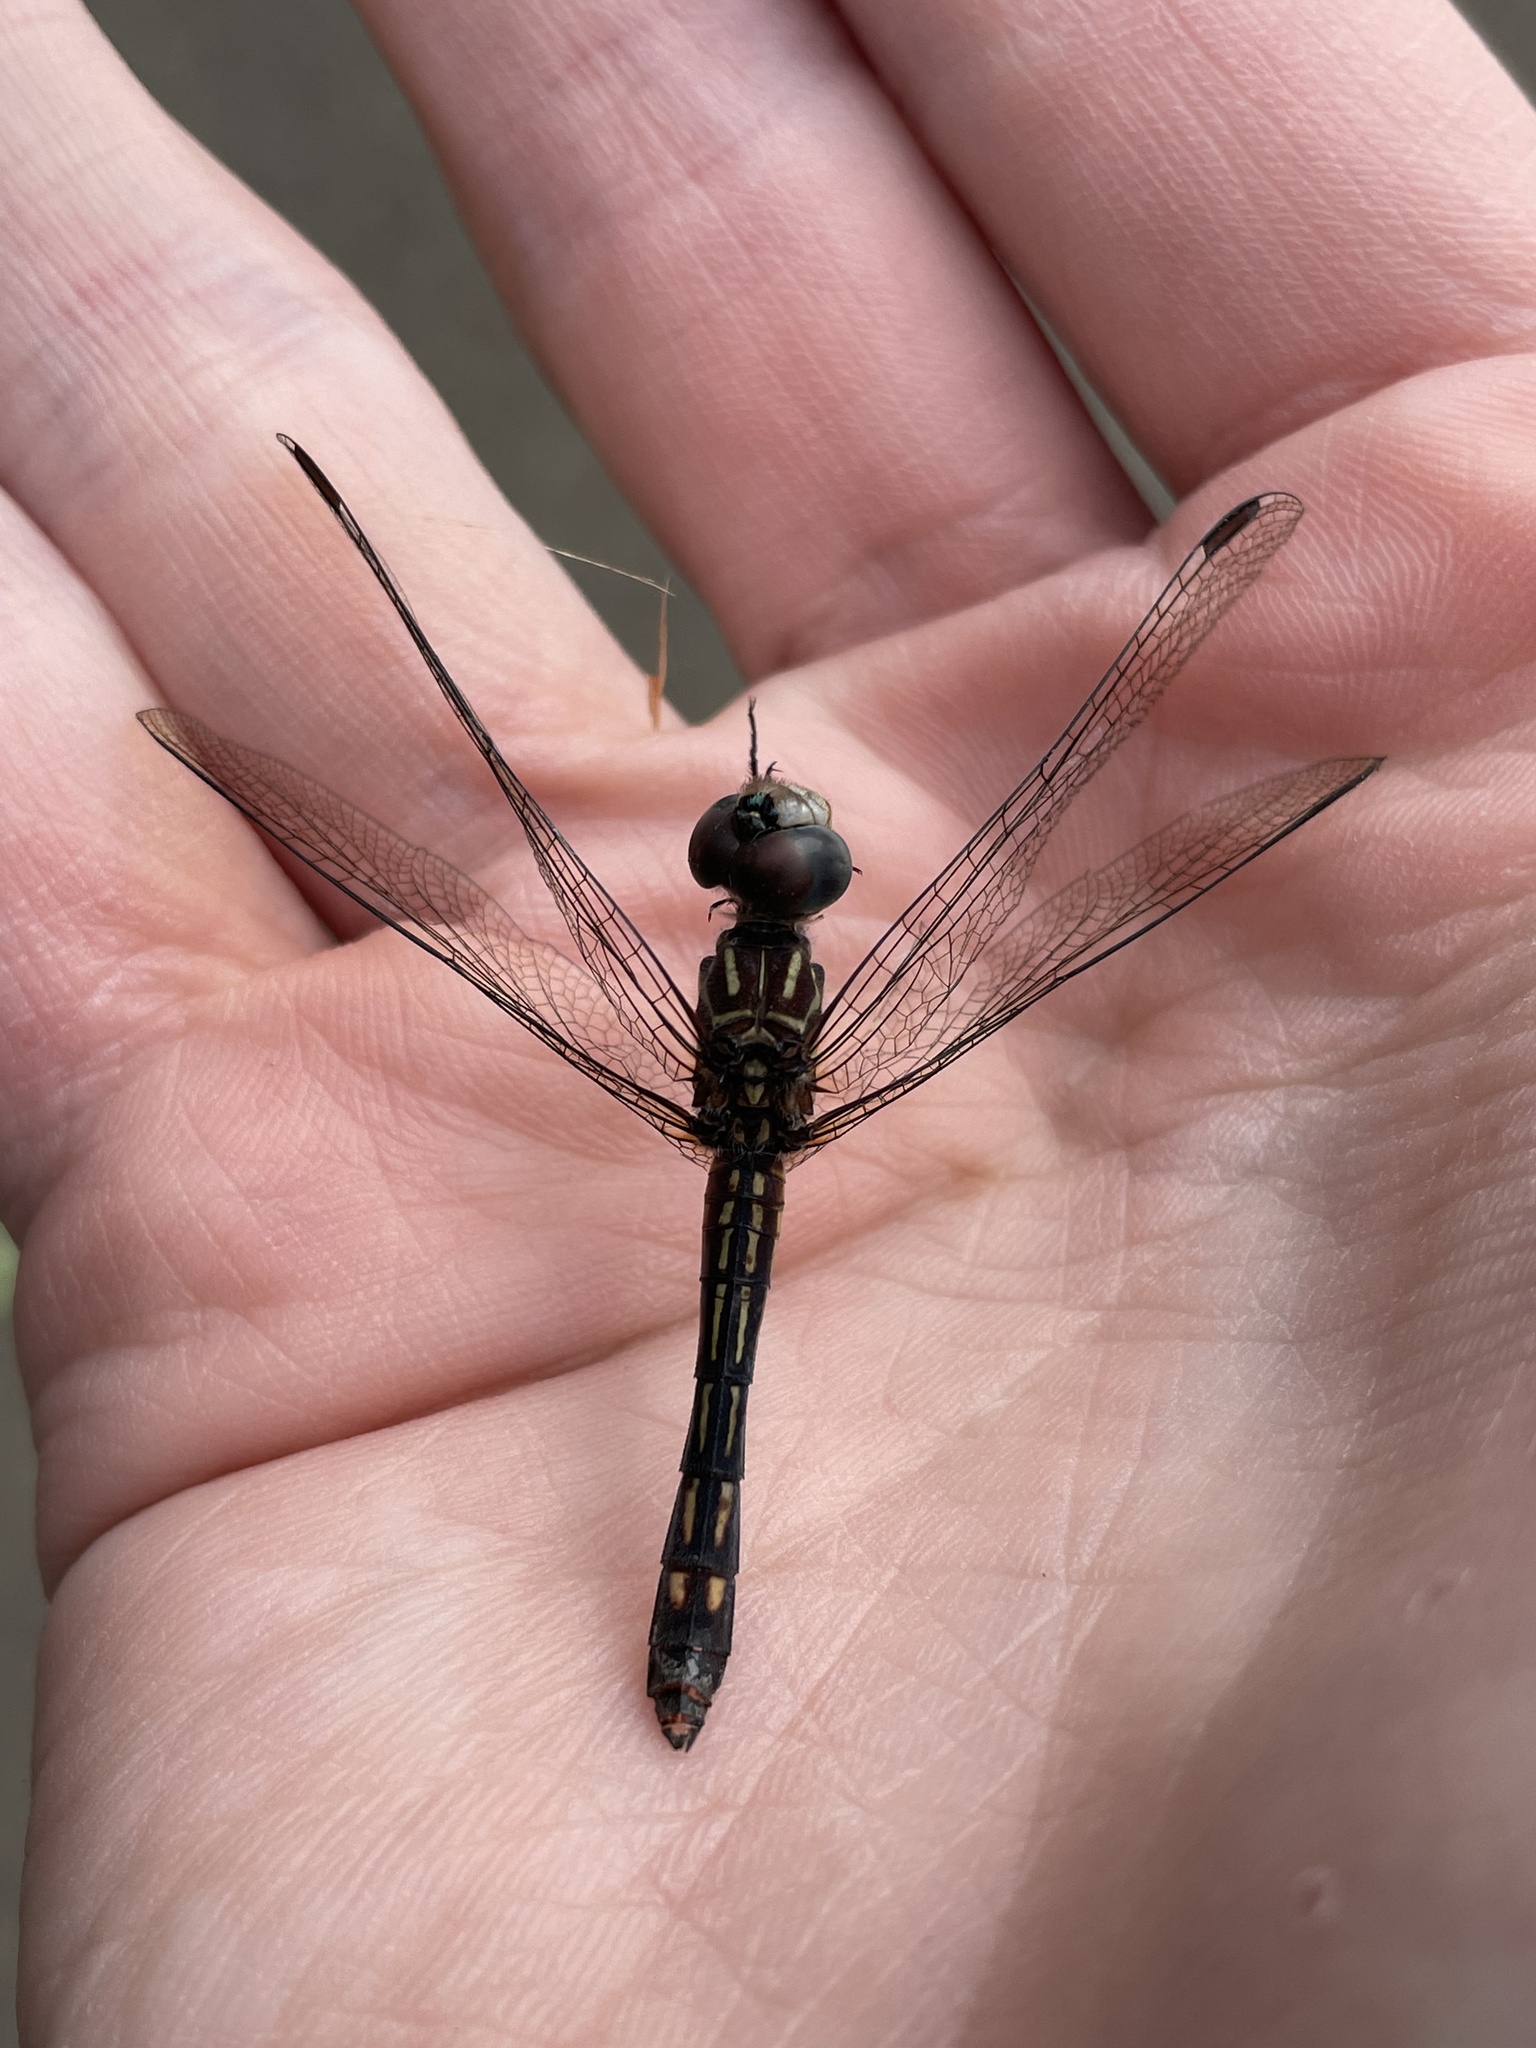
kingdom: Animalia
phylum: Arthropoda
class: Insecta
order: Odonata
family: Libellulidae
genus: Pachydiplax
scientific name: Pachydiplax longipennis
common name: Blue dasher
